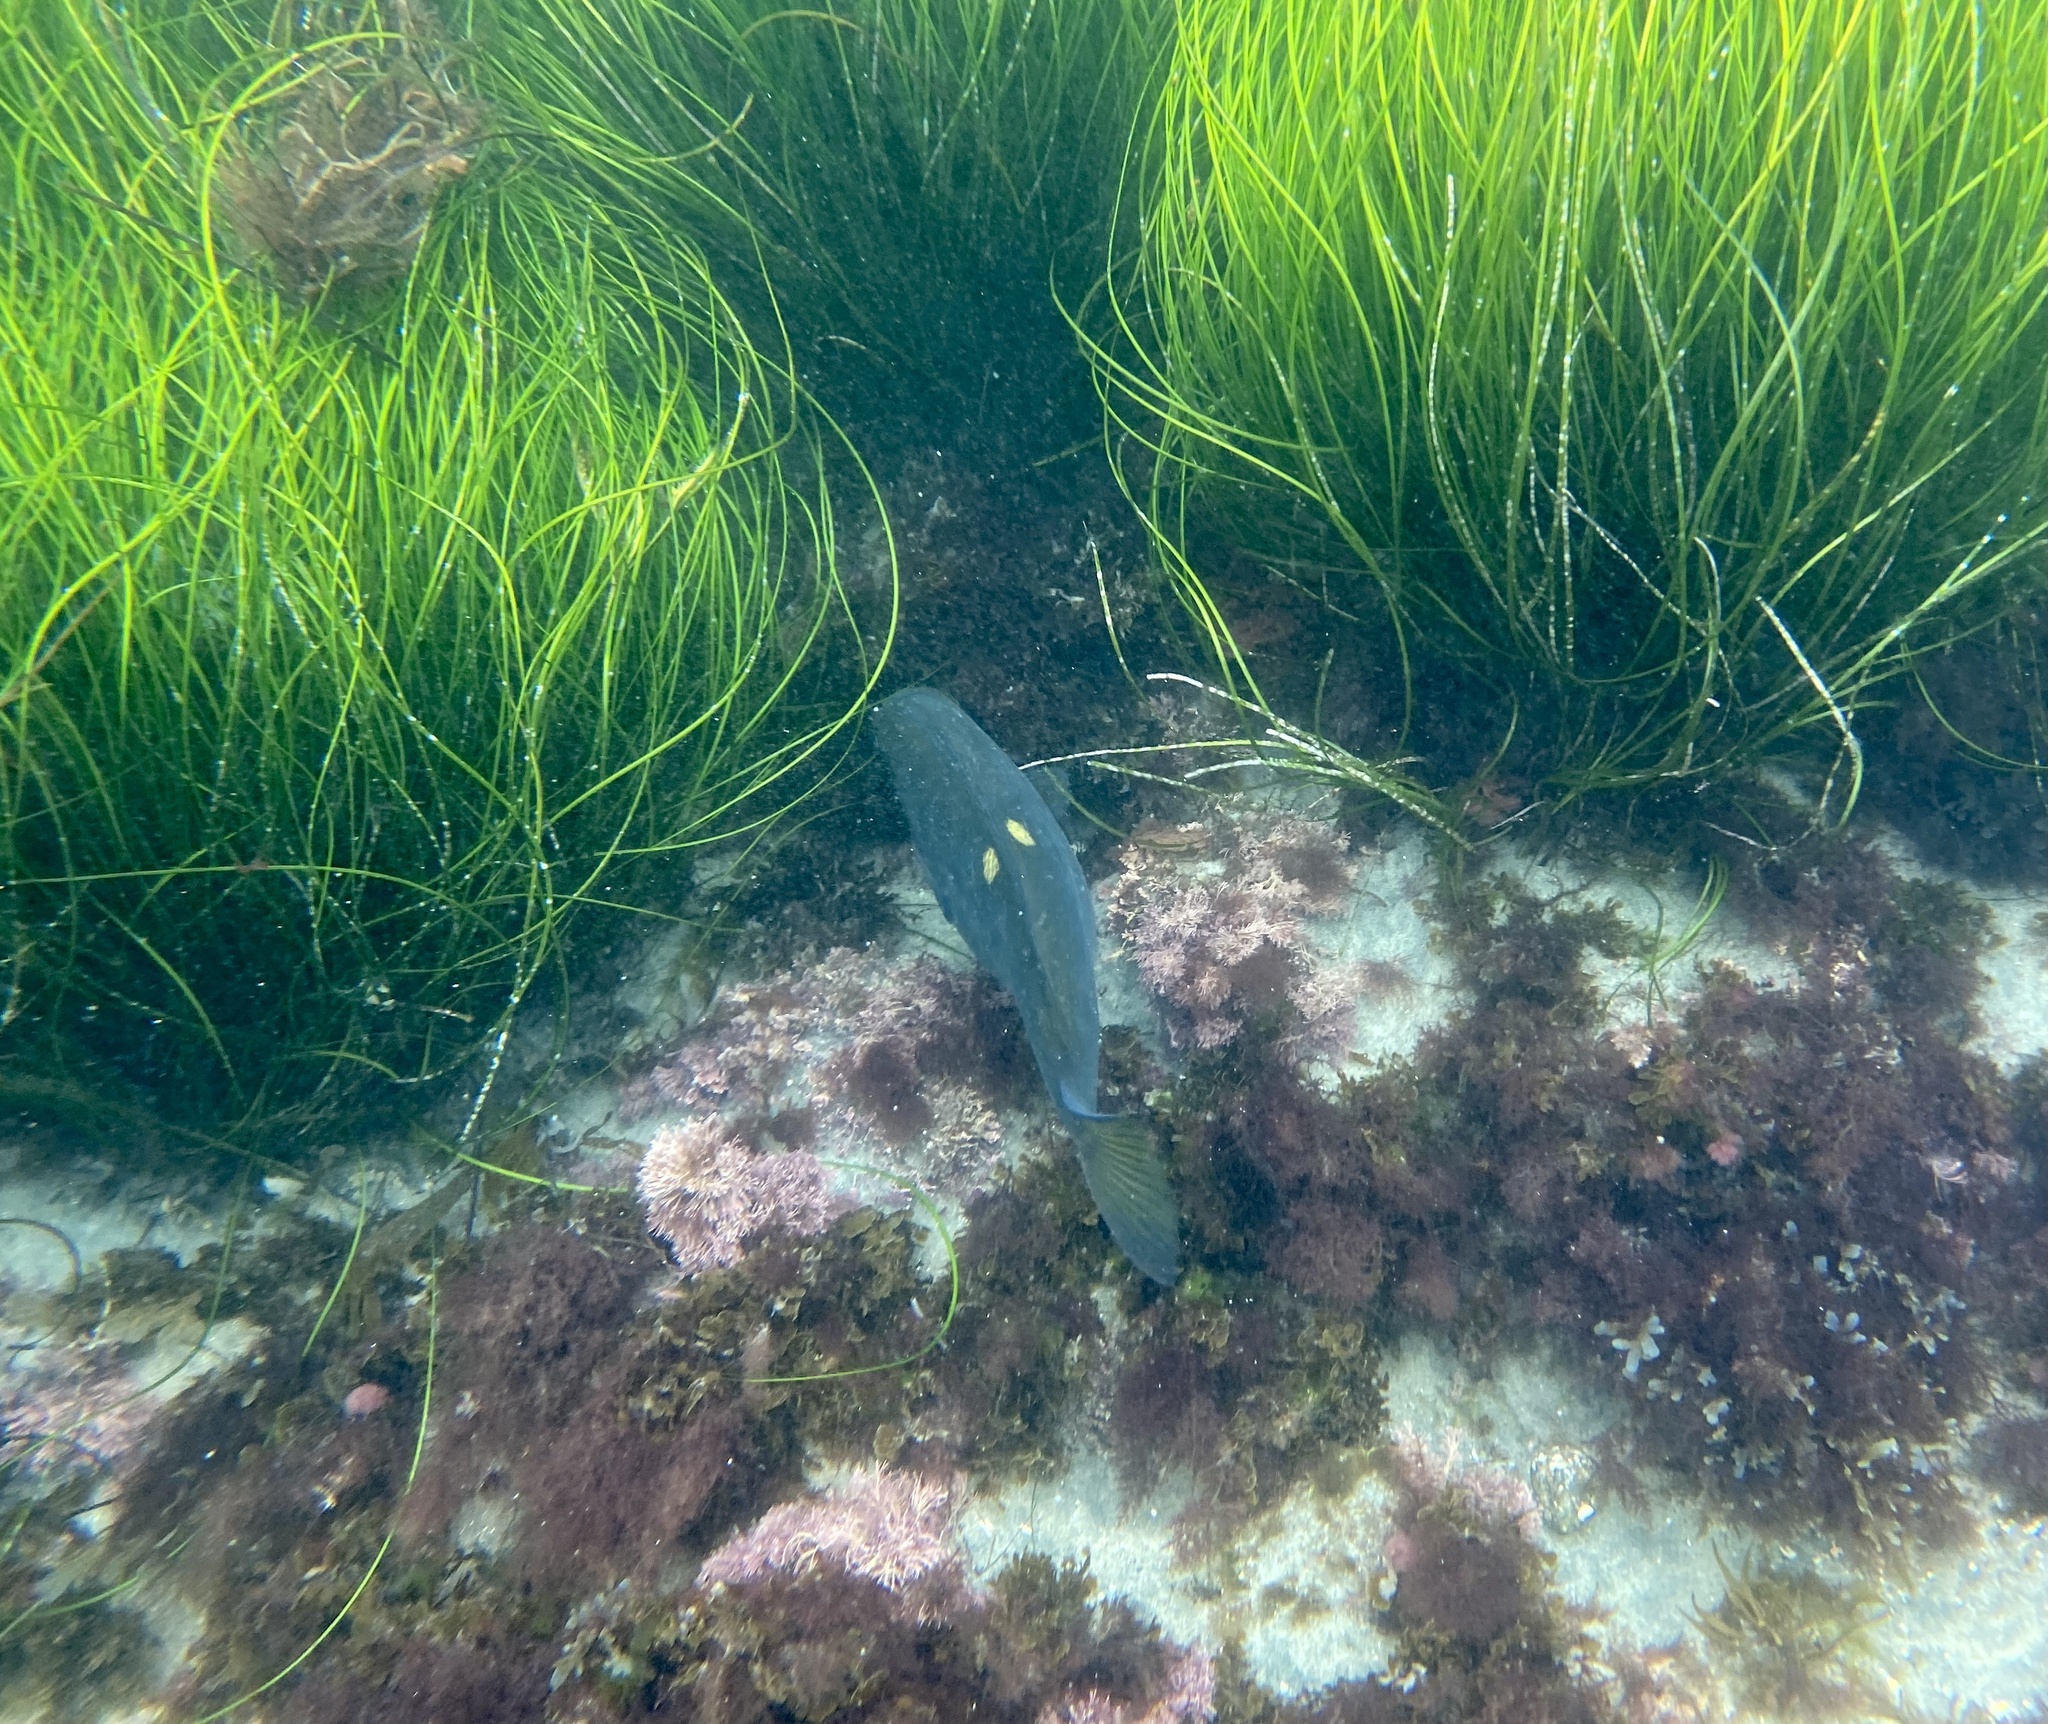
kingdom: Animalia
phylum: Chordata
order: Perciformes
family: Kyphosidae
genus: Girella
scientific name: Girella nigricans
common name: Opaleye
